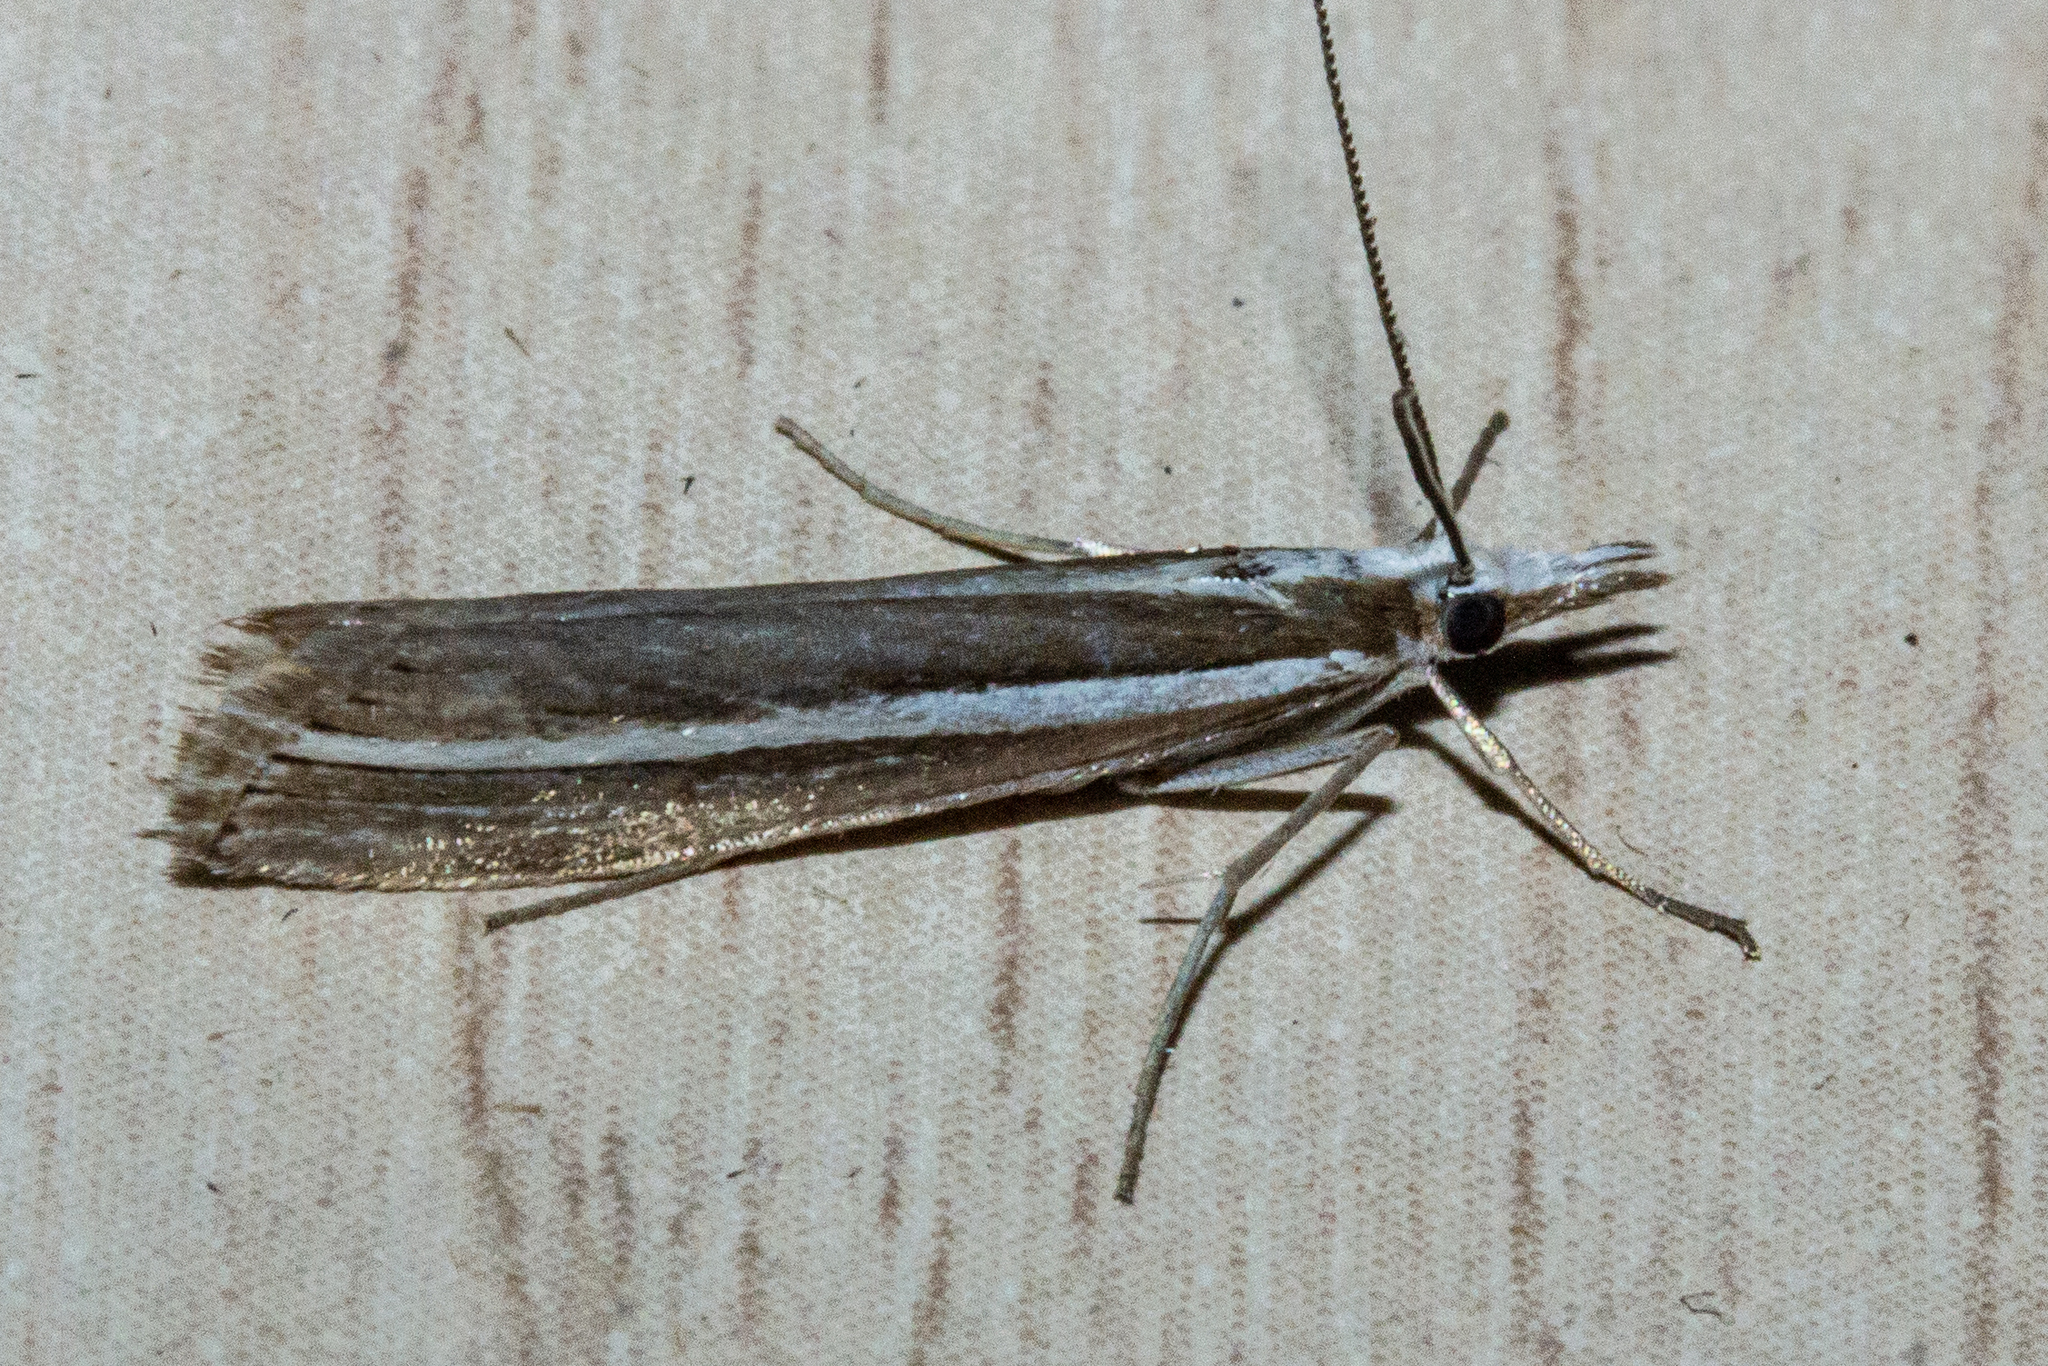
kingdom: Animalia
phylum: Arthropoda
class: Insecta
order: Lepidoptera
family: Crambidae
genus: Orocrambus
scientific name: Orocrambus enchophorus
